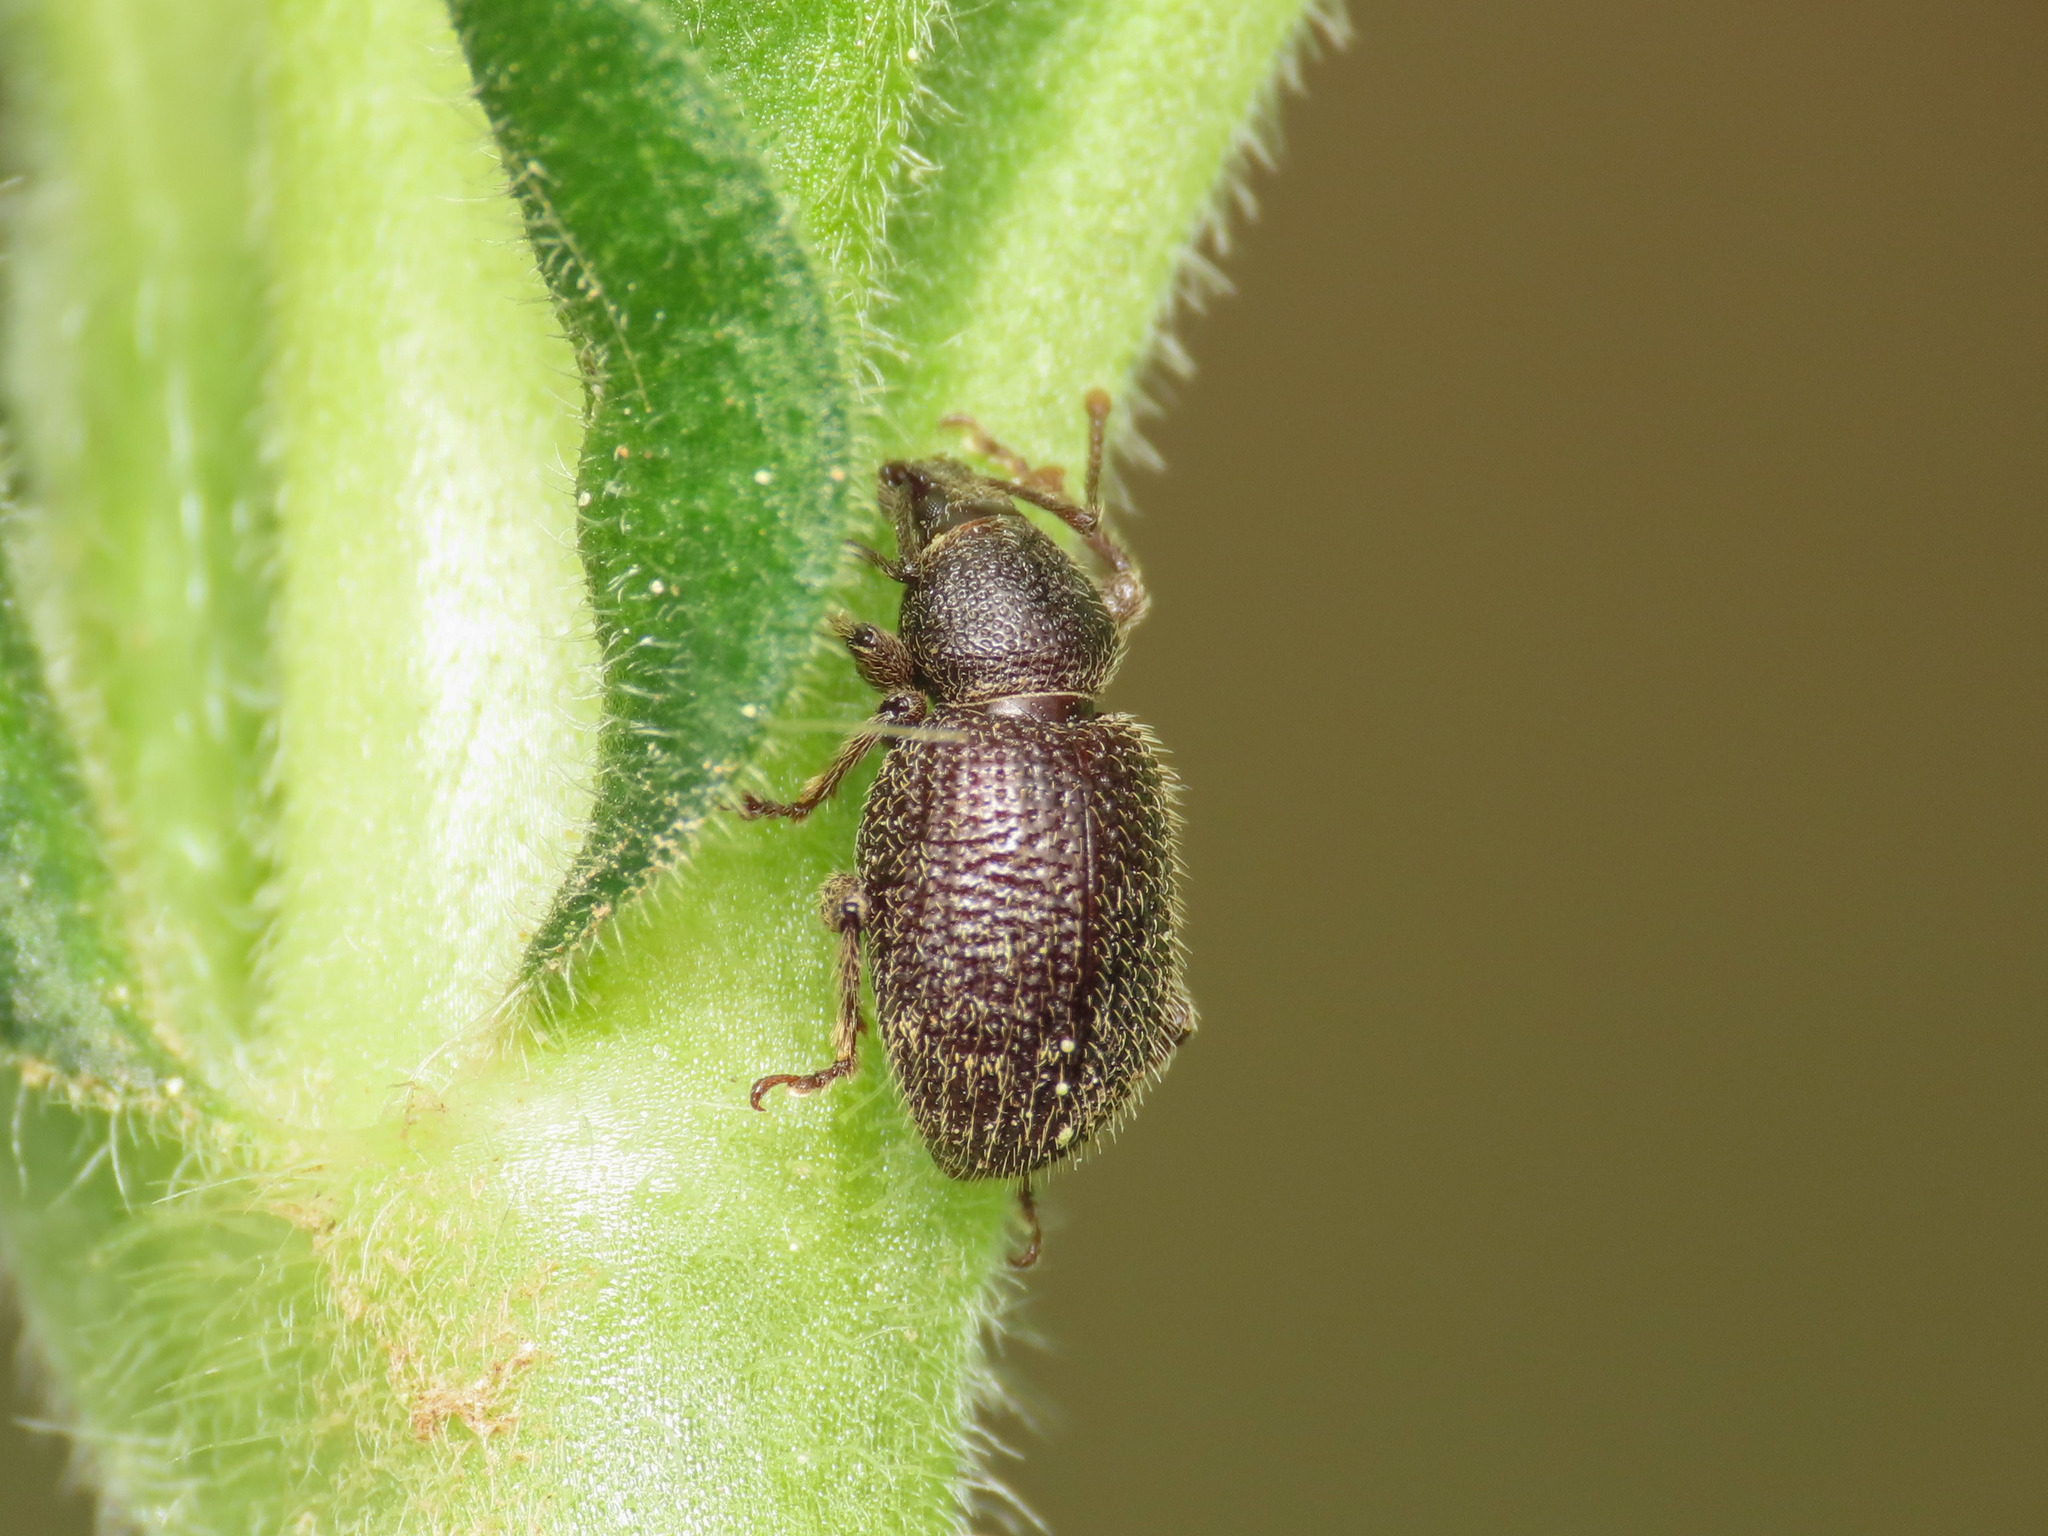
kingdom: Animalia
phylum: Arthropoda
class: Insecta
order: Coleoptera
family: Curculionidae
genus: Otiorhynchus
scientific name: Otiorhynchus indefinitus
